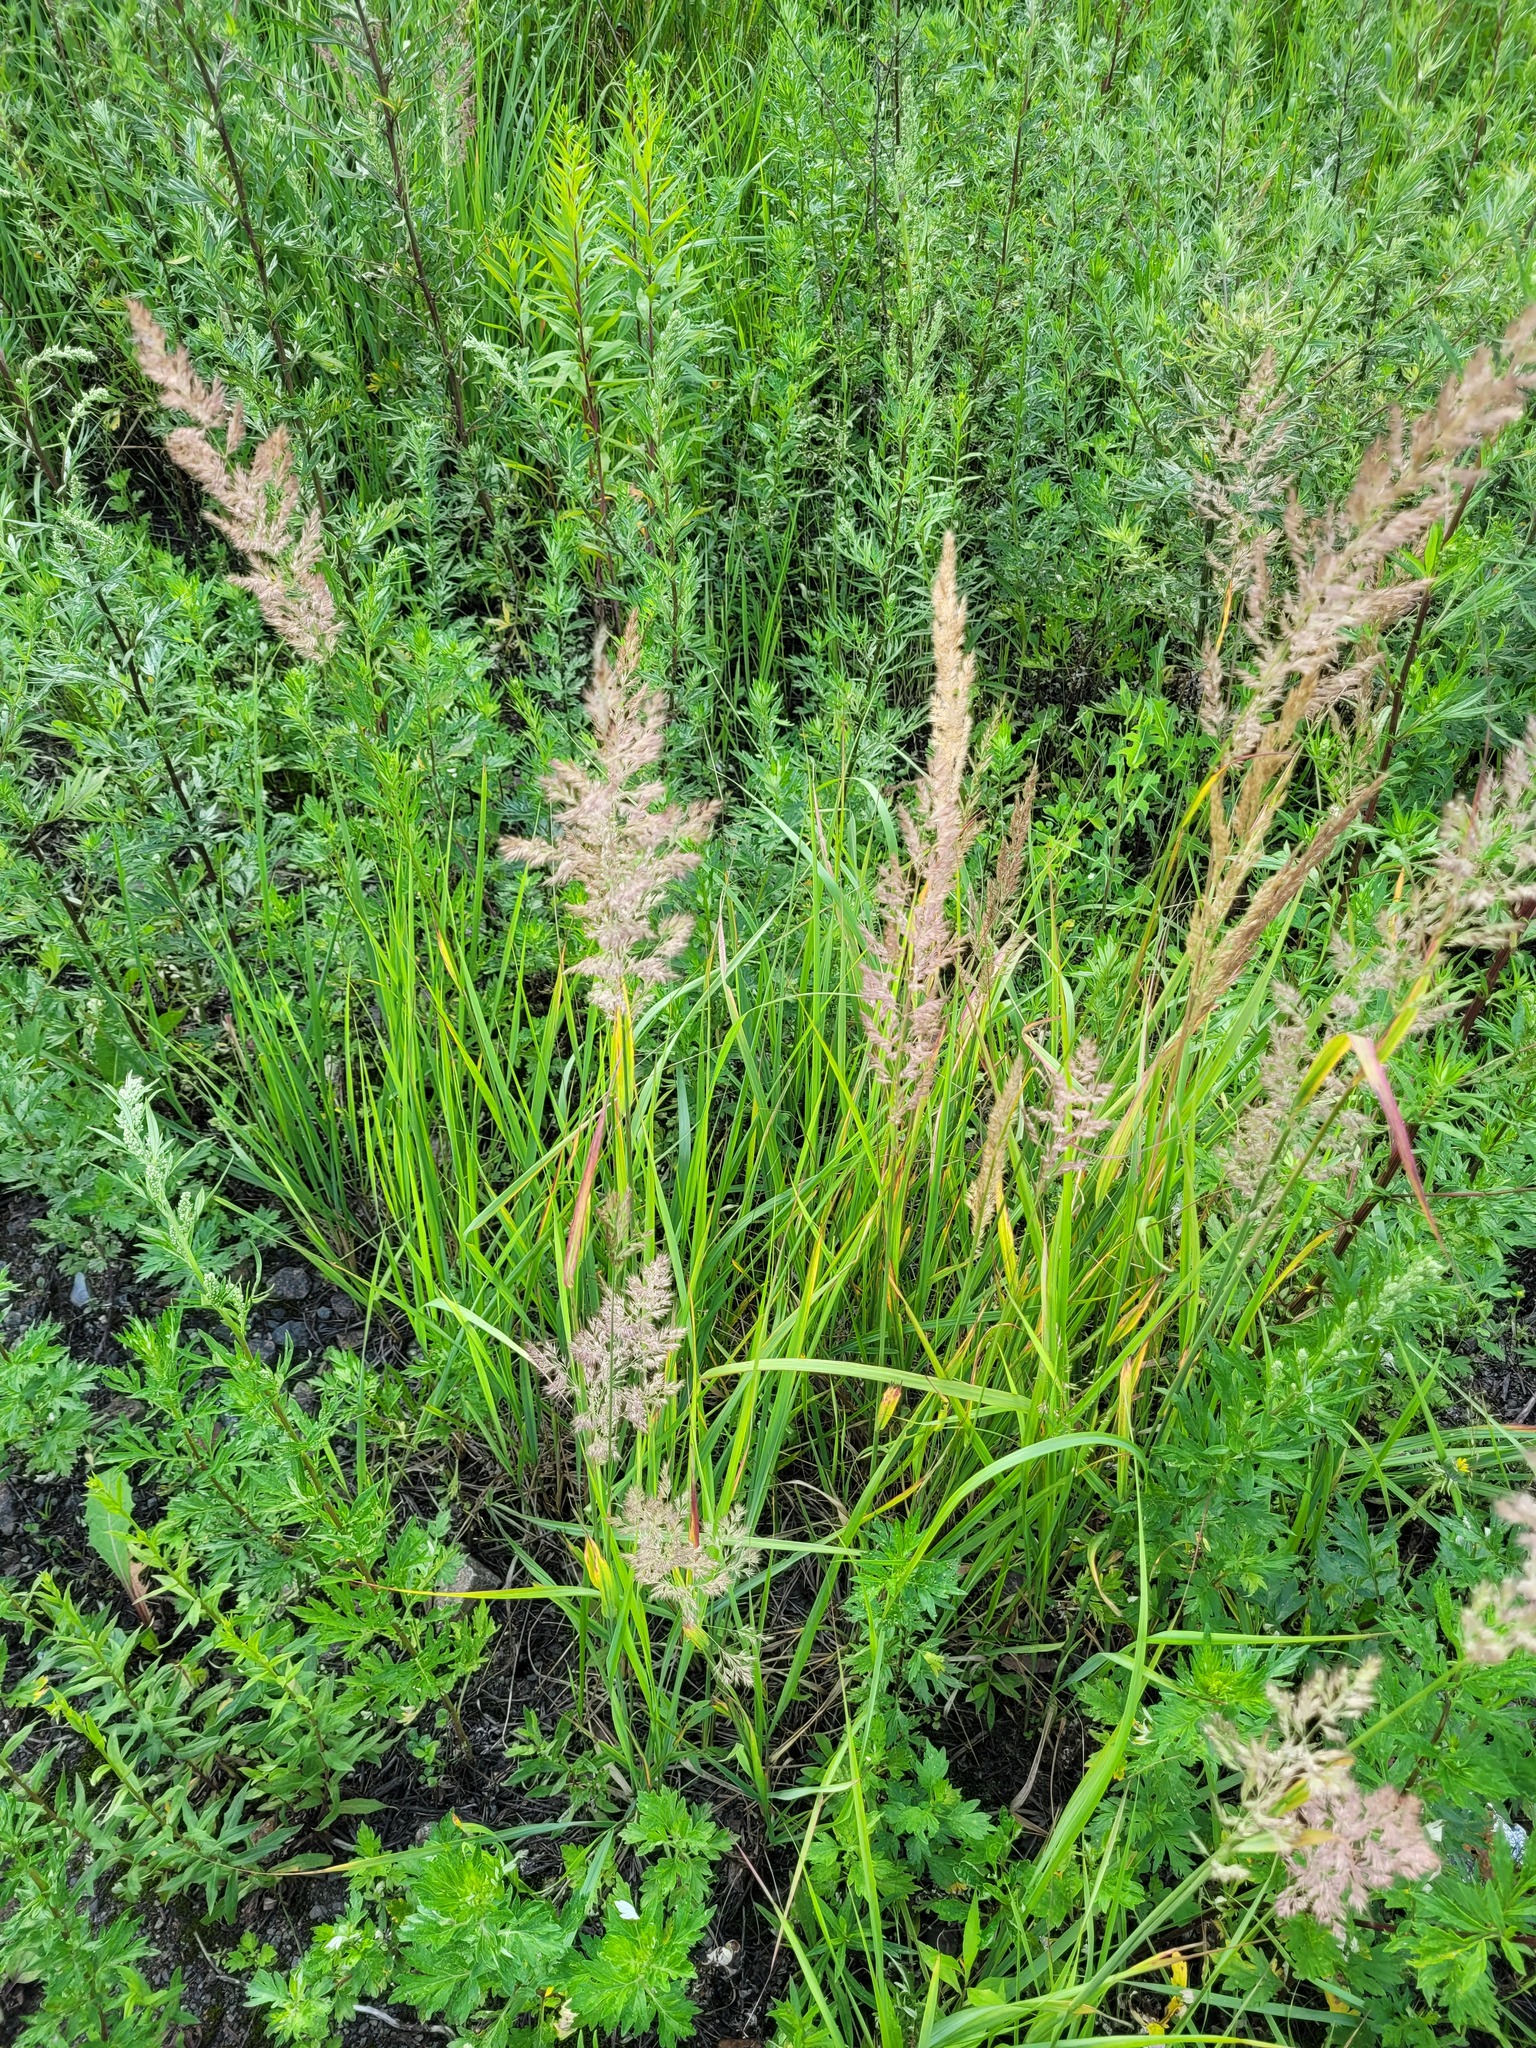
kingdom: Plantae
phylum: Tracheophyta
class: Liliopsida
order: Poales
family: Poaceae
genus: Calamagrostis
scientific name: Calamagrostis epigejos
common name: Wood small-reed
